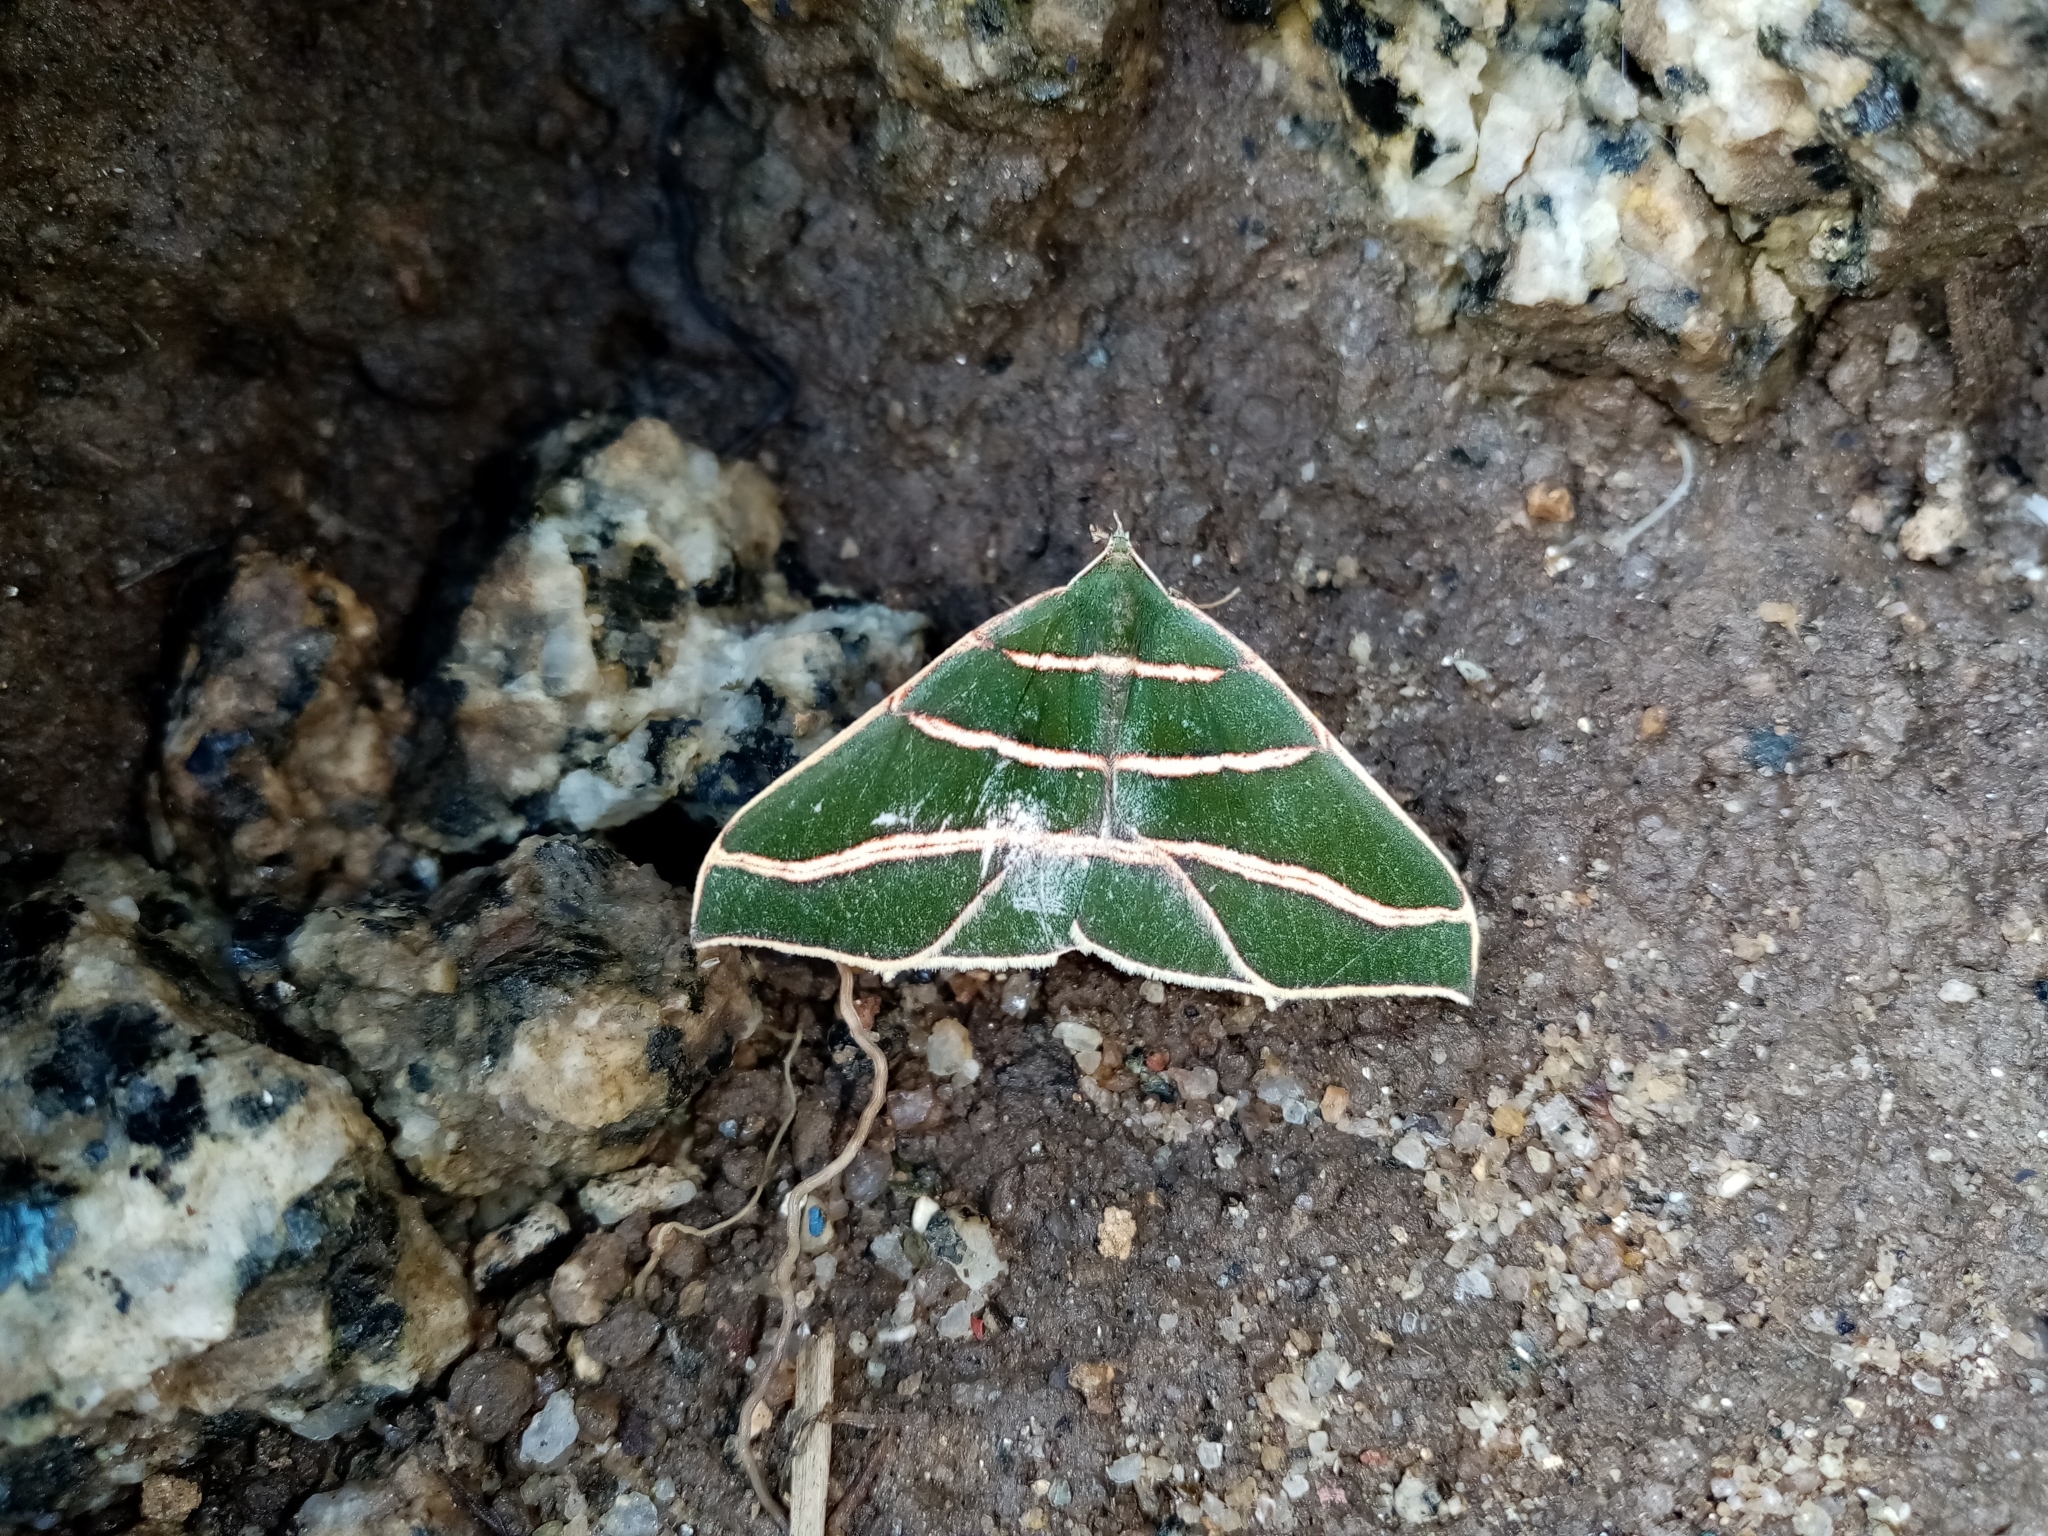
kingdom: Animalia
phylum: Arthropoda
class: Insecta
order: Lepidoptera
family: Geometridae
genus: Sarracena
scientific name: Sarracena chlamydaria
